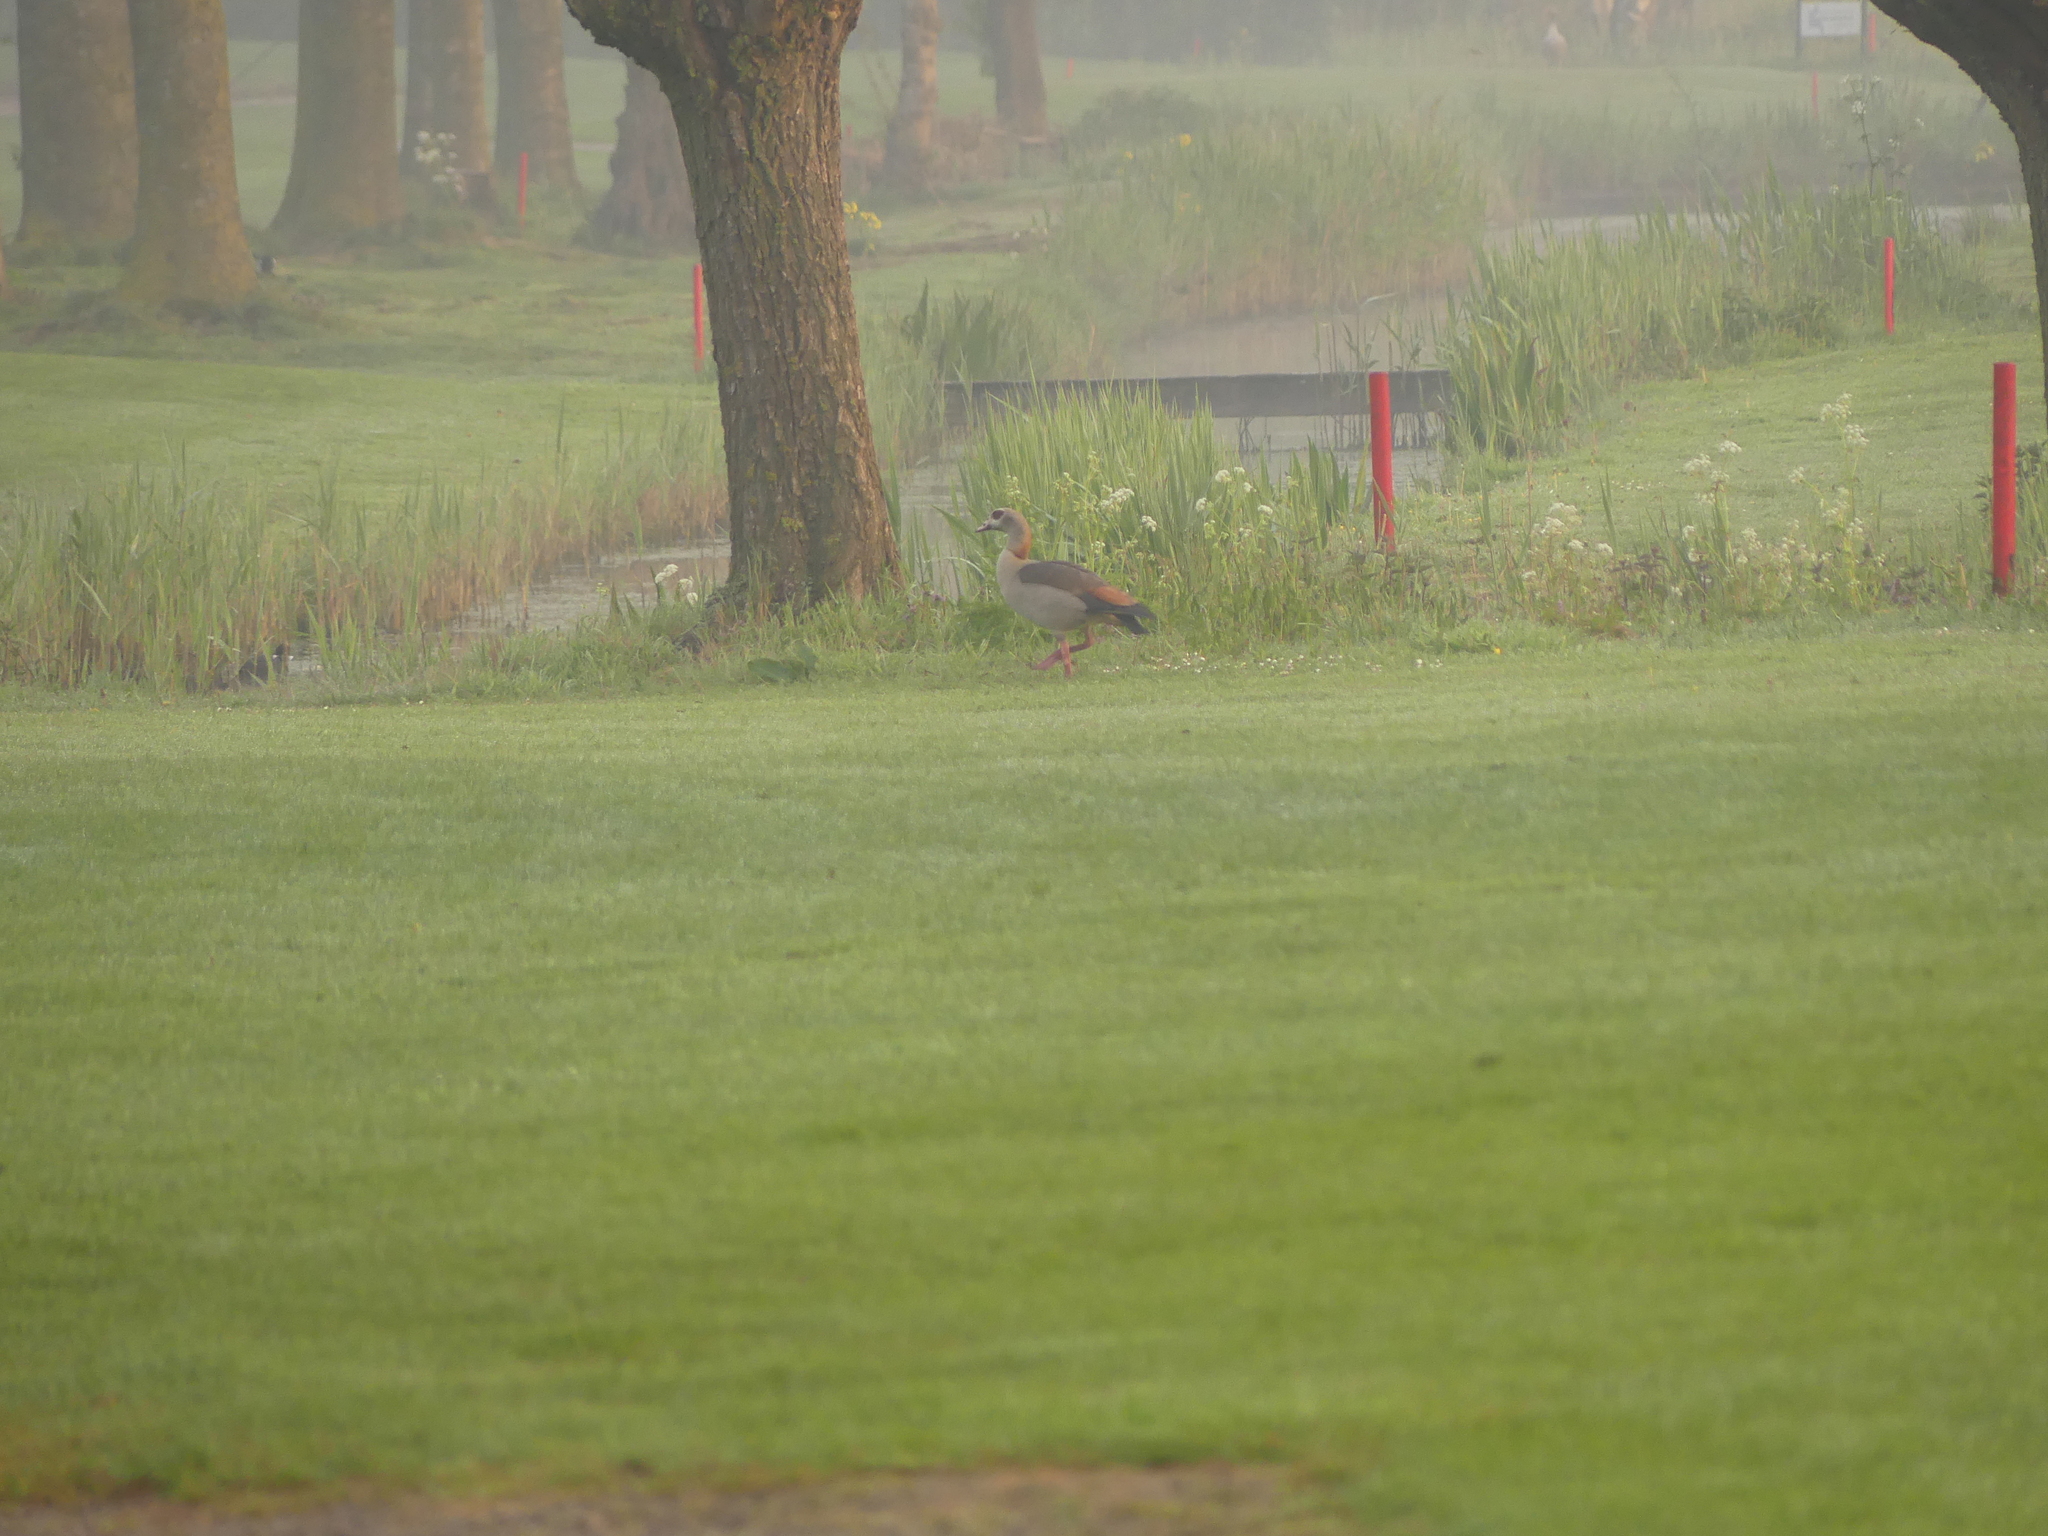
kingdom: Animalia
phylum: Chordata
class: Aves
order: Anseriformes
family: Anatidae
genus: Alopochen
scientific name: Alopochen aegyptiaca
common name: Egyptian goose
